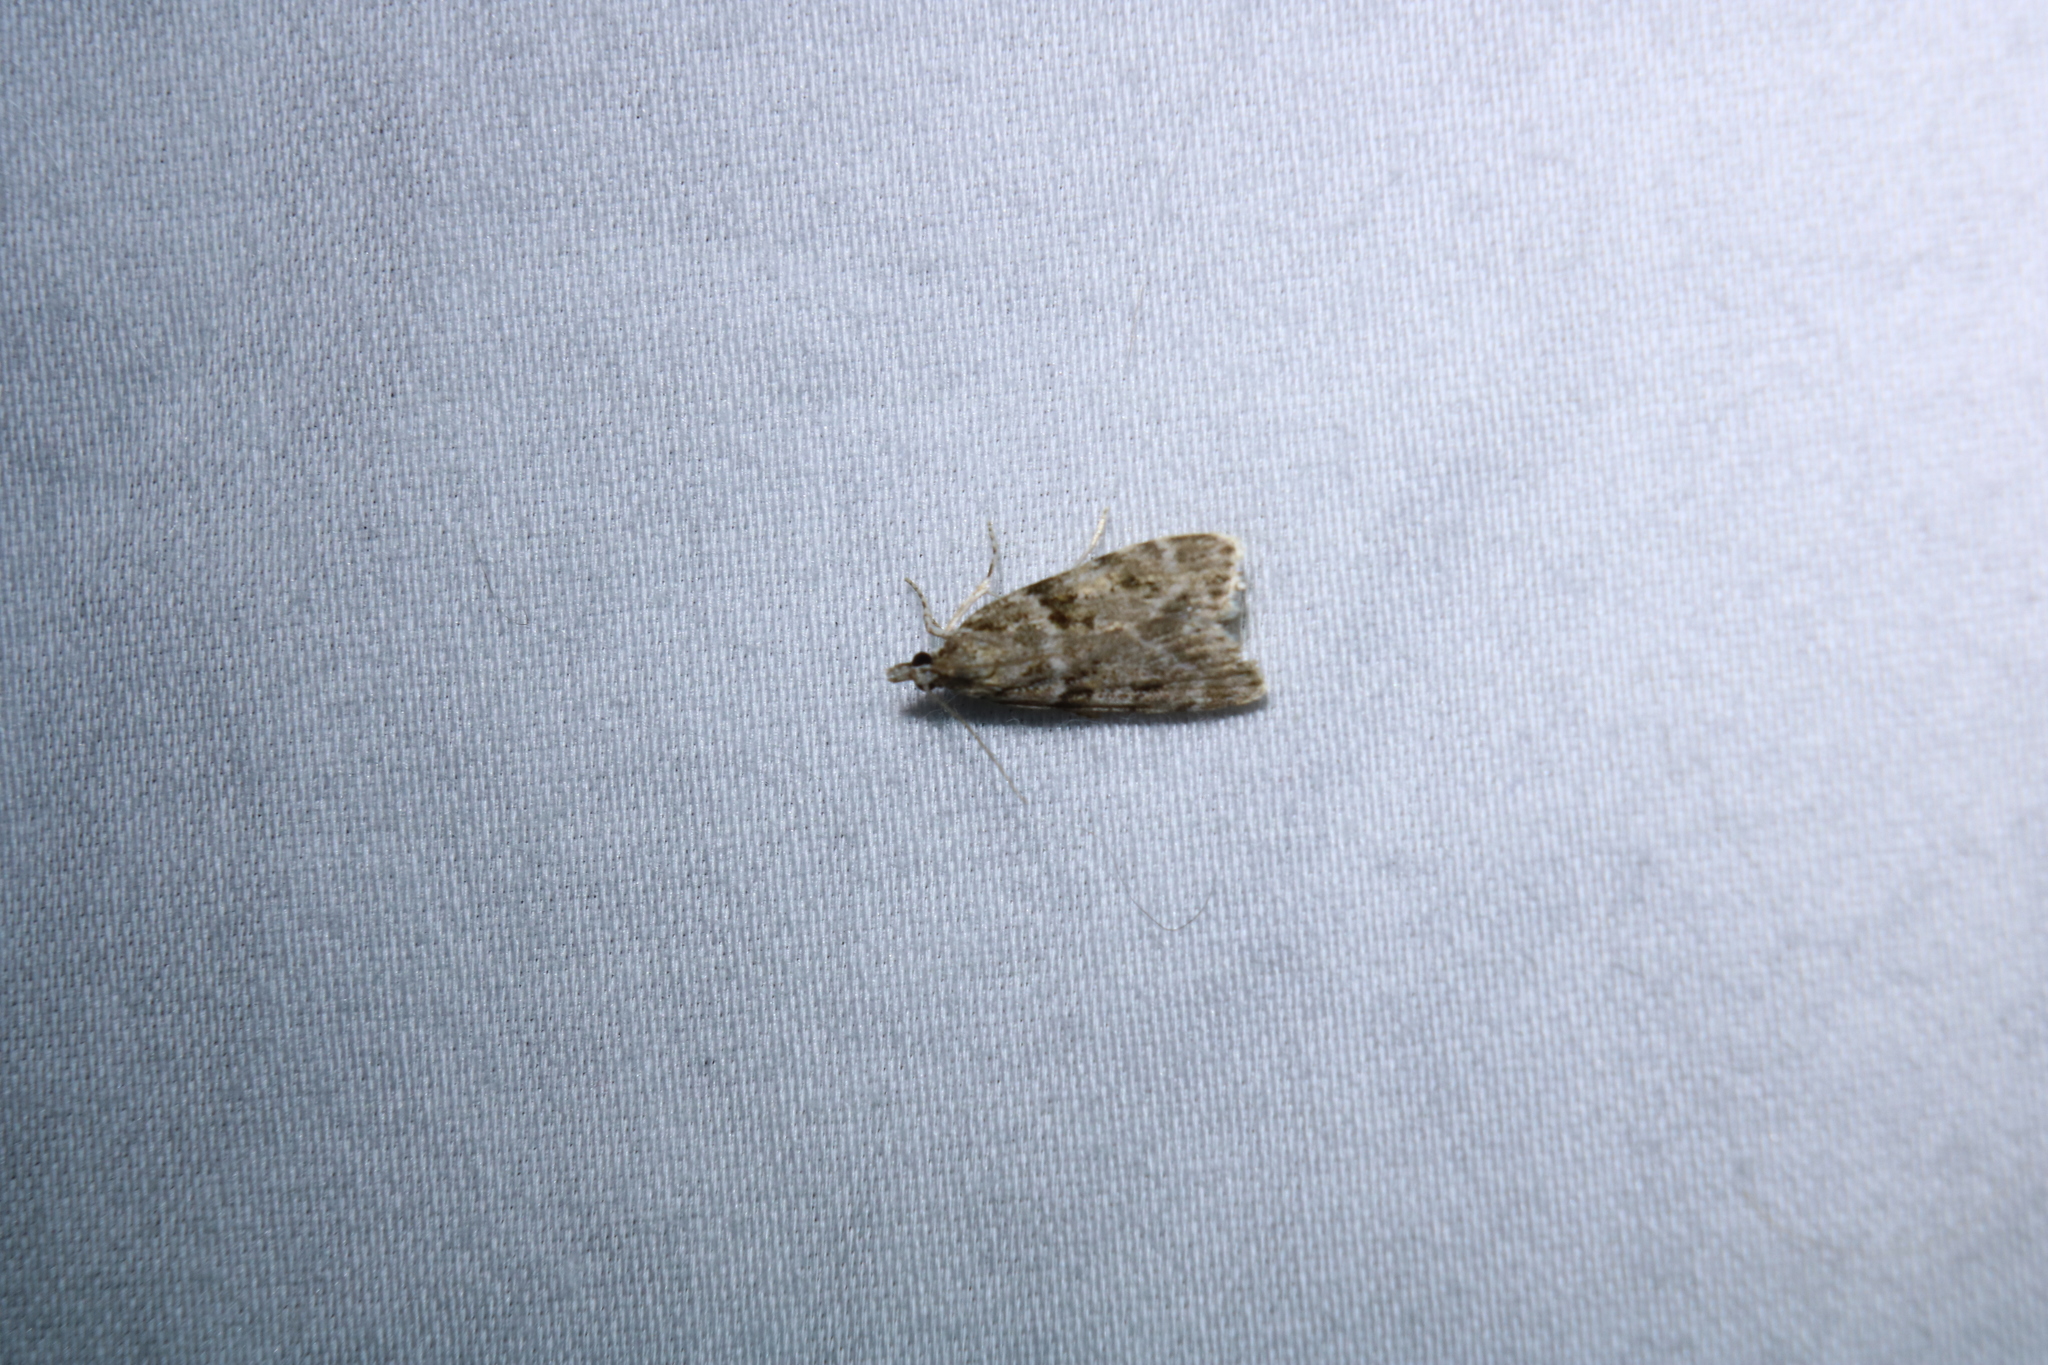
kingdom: Animalia
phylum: Arthropoda
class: Insecta
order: Lepidoptera
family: Crambidae
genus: Scoparia
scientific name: Scoparia biplagialis
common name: Double-striped scoparia moth
